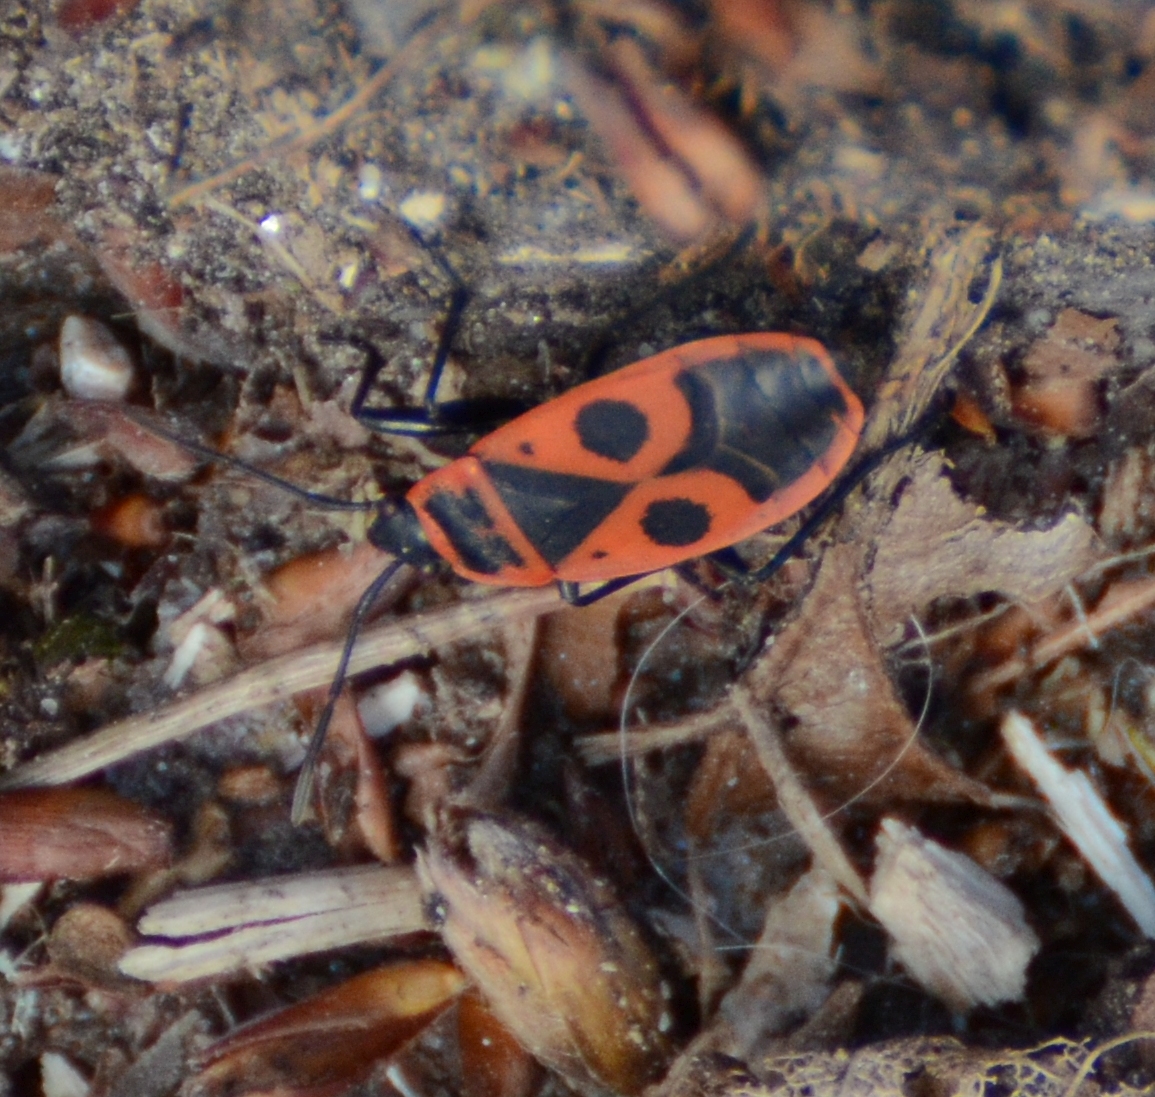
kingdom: Animalia
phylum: Arthropoda
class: Insecta
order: Hemiptera
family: Pyrrhocoridae
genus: Pyrrhocoris
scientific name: Pyrrhocoris apterus
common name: Firebug
